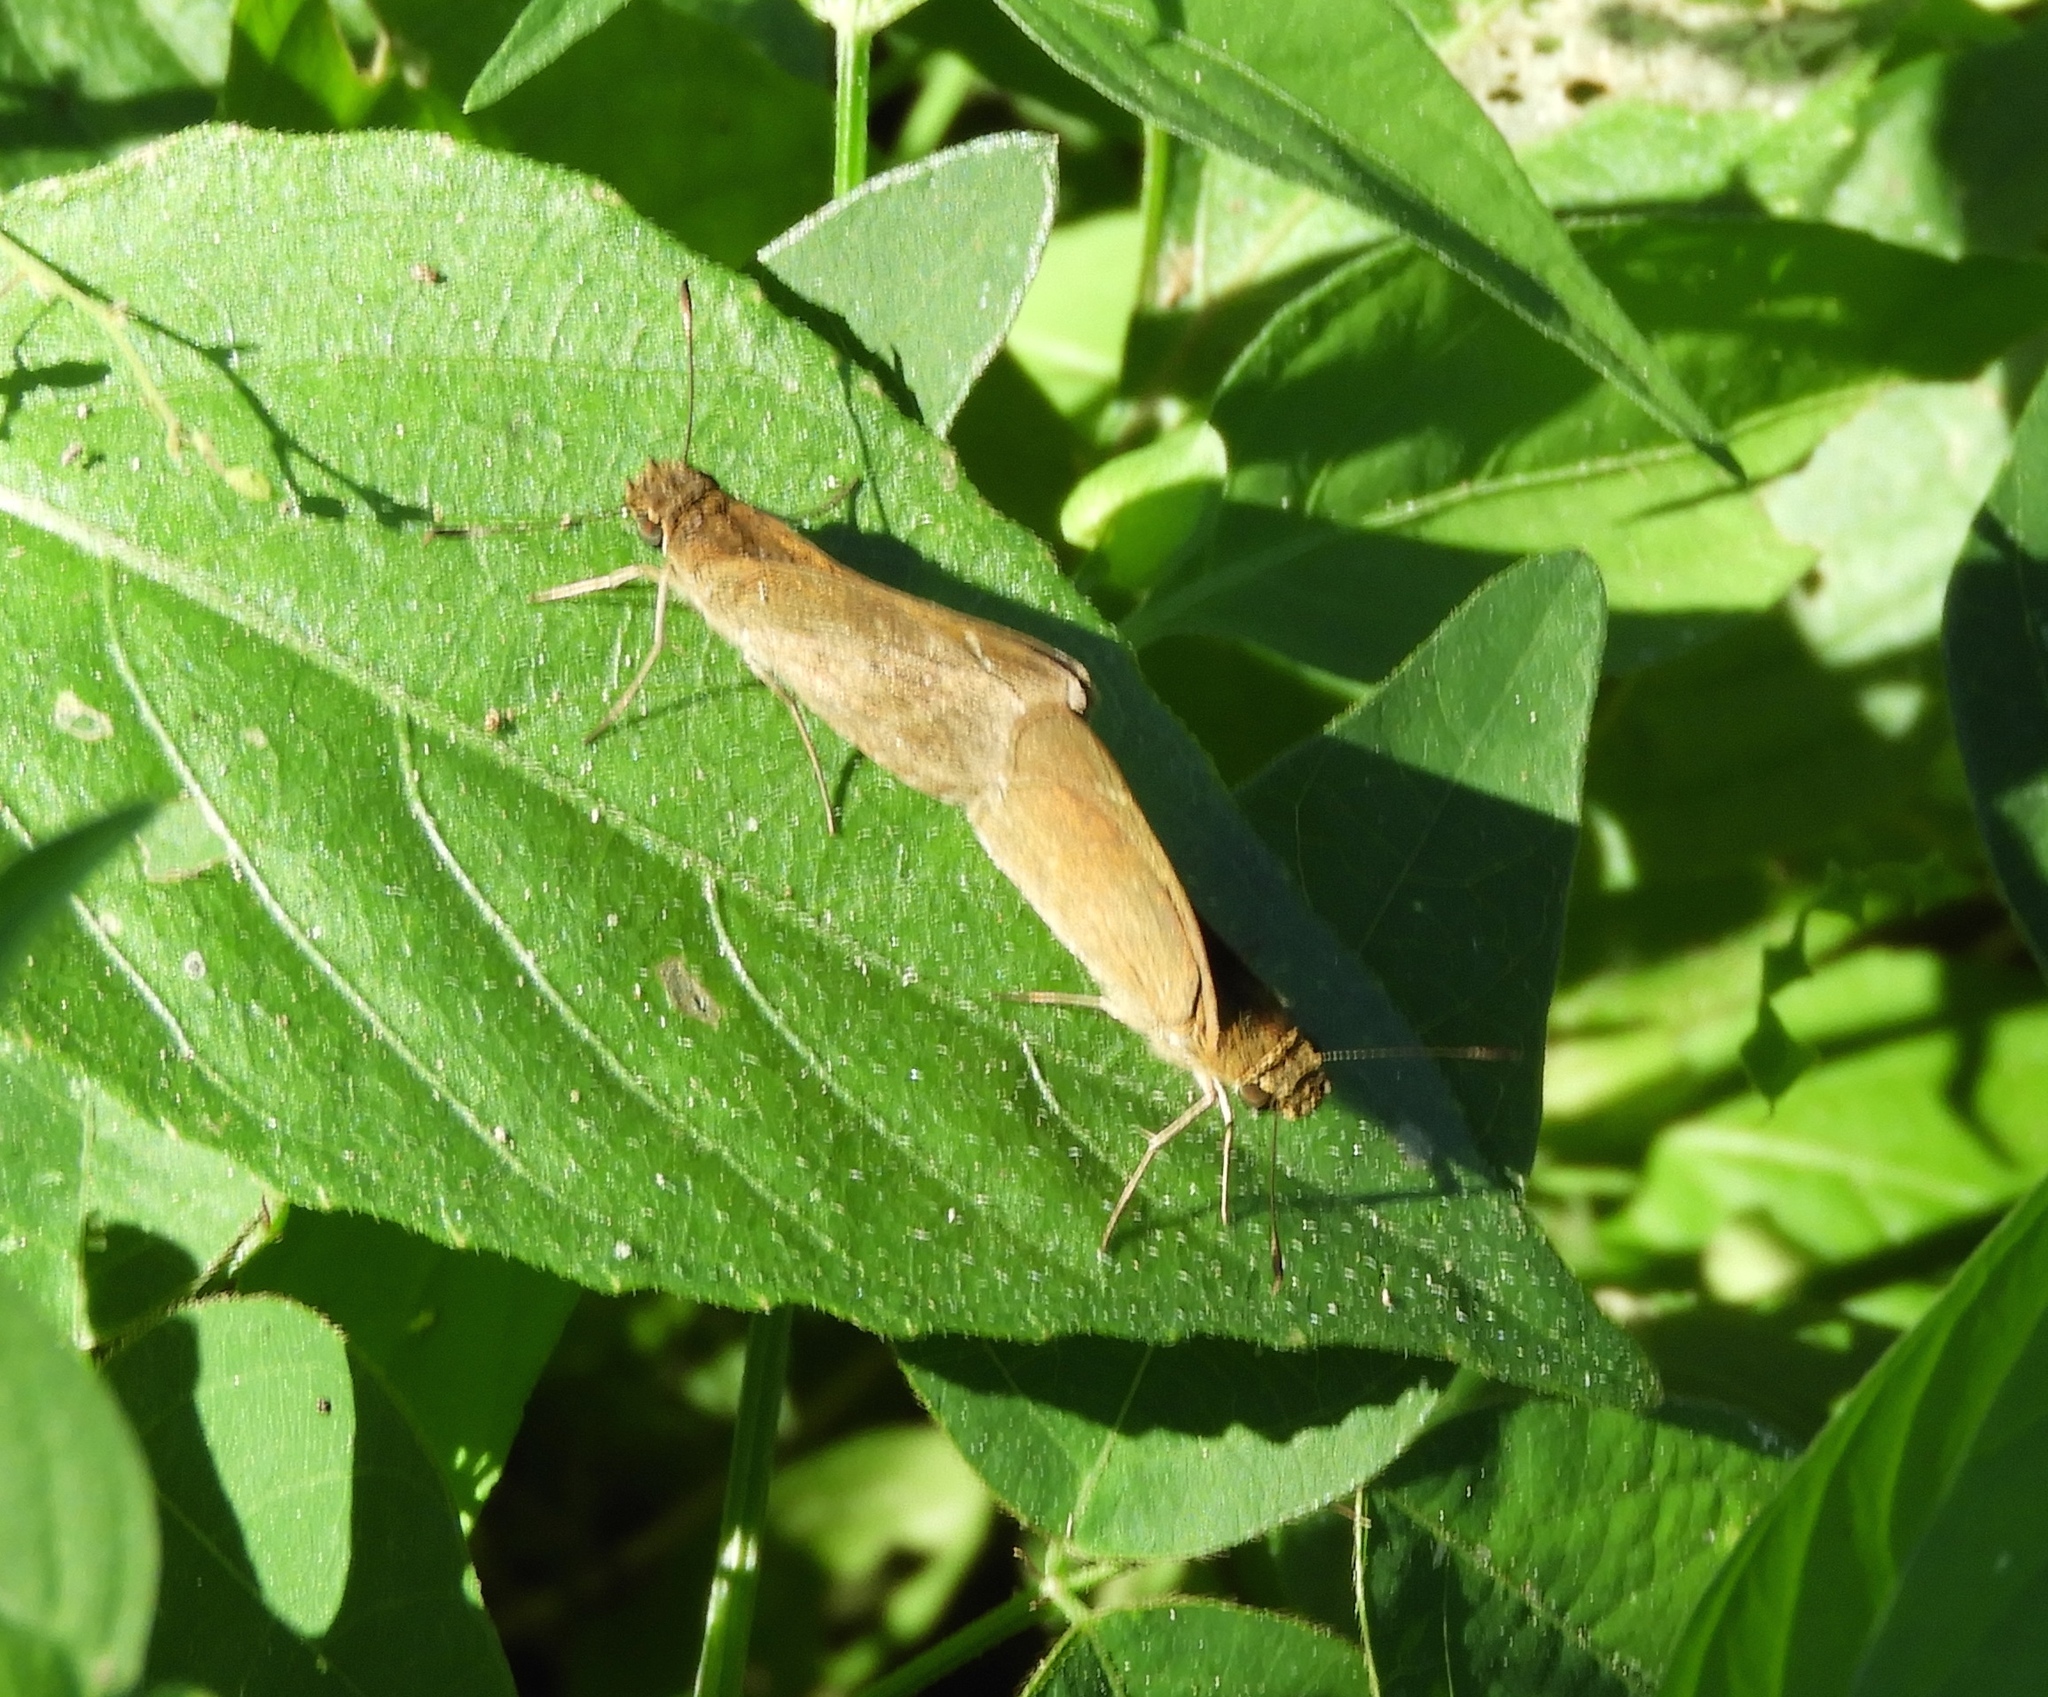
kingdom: Animalia
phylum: Arthropoda
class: Insecta
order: Lepidoptera
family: Hesperiidae
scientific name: Hesperiidae
